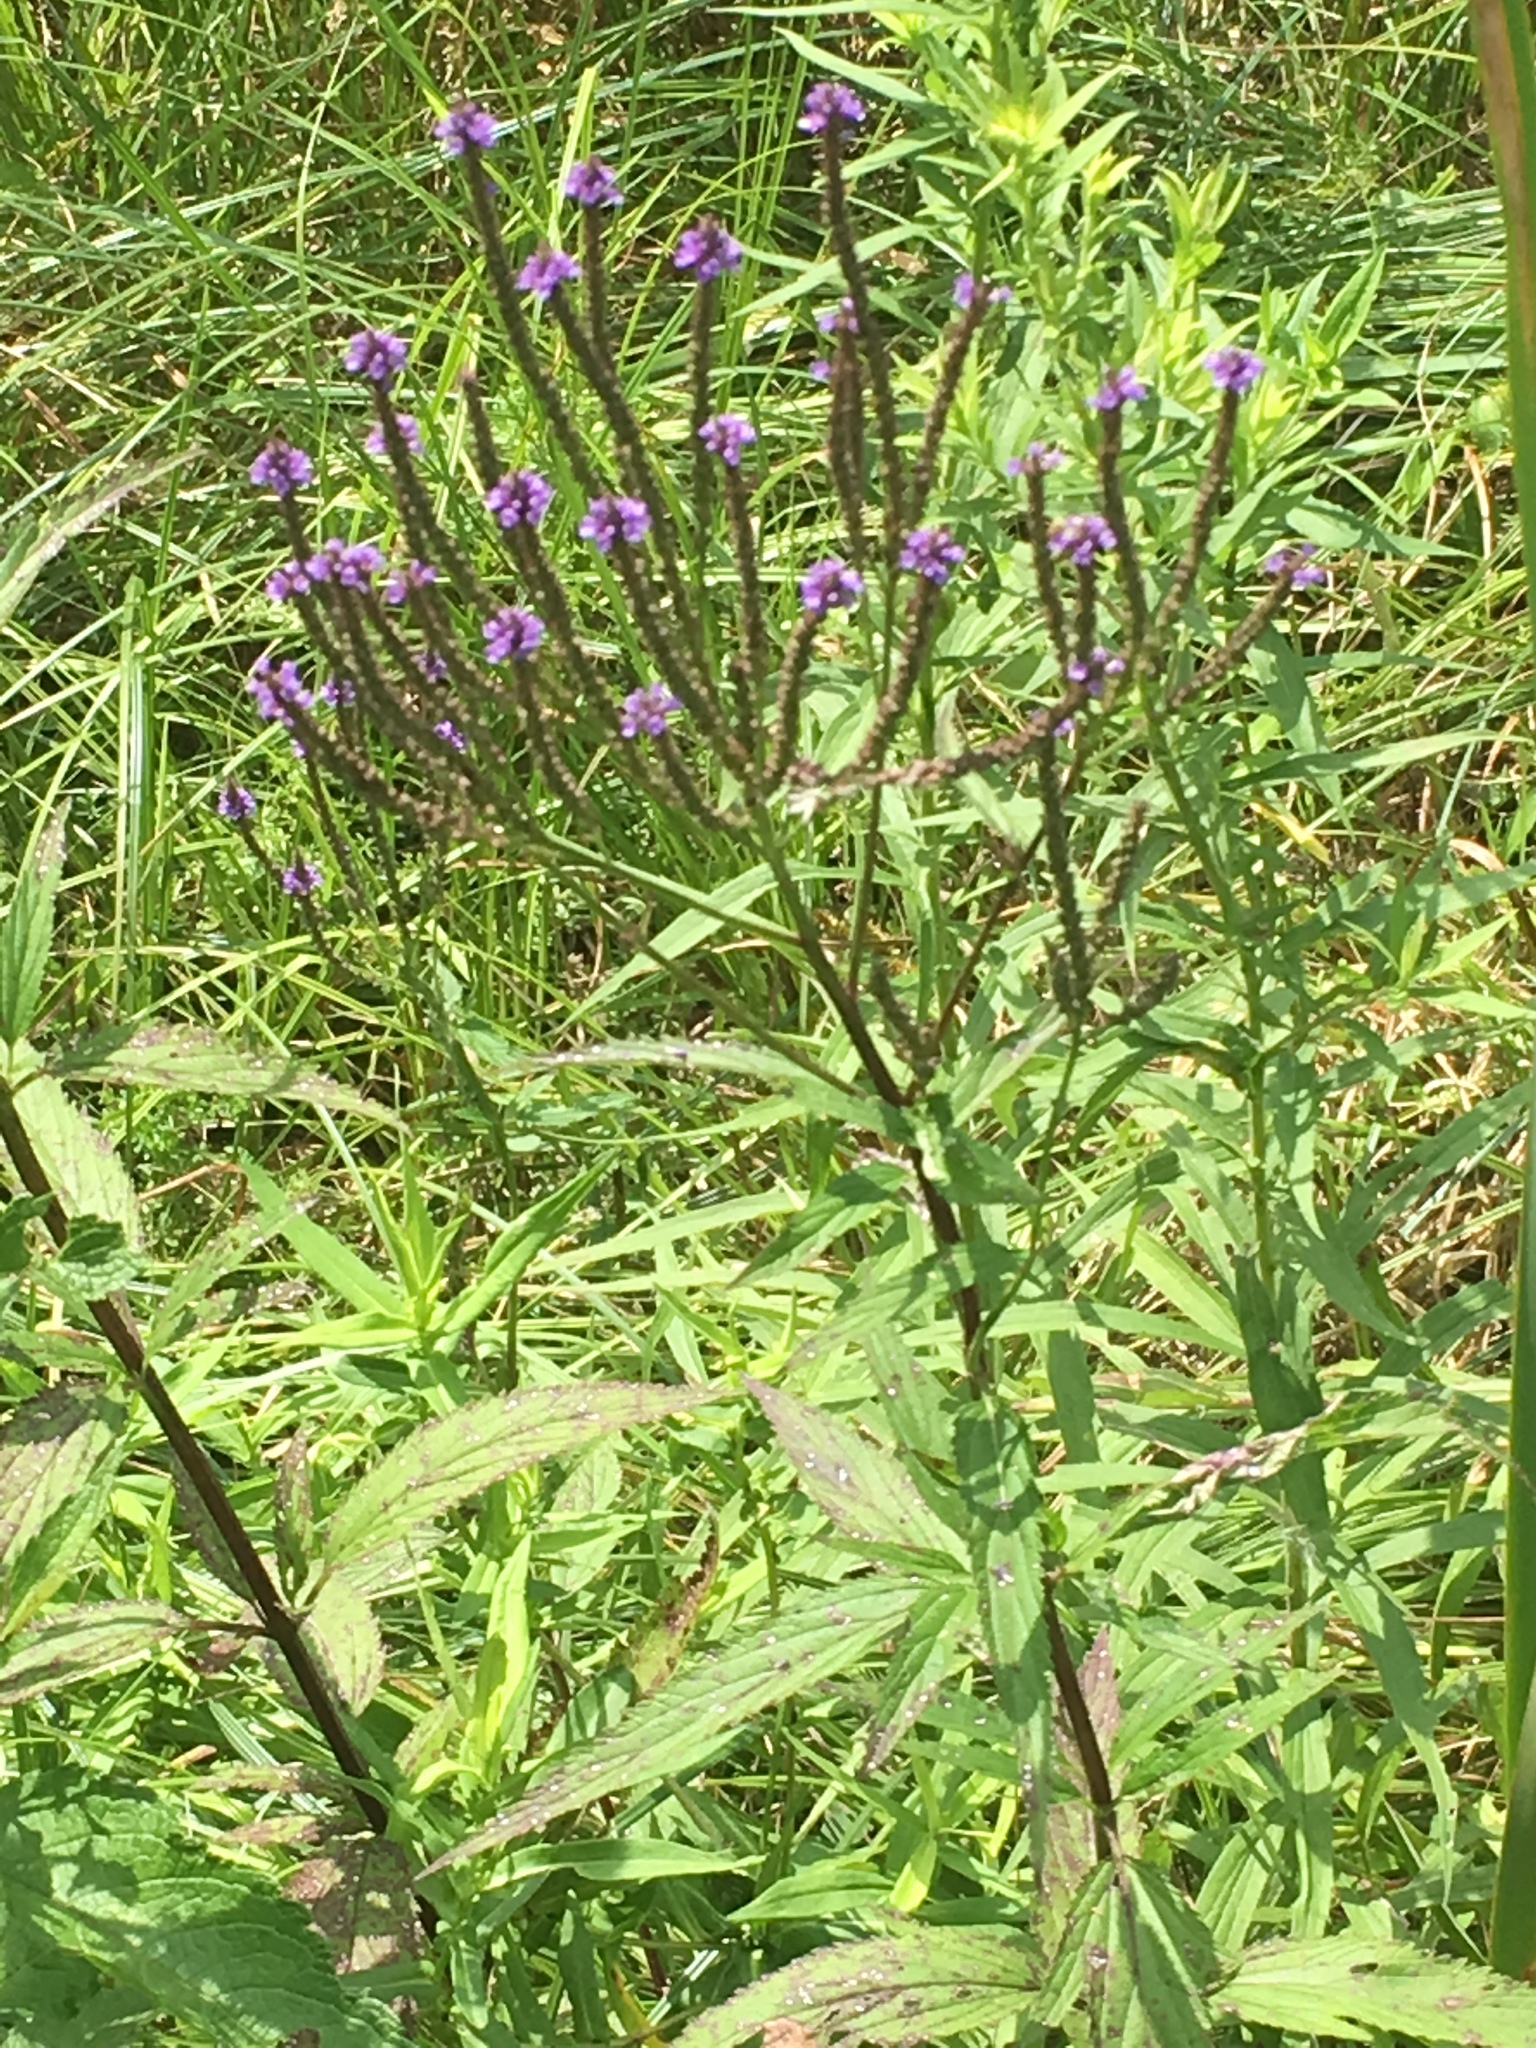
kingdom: Plantae
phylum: Tracheophyta
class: Magnoliopsida
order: Lamiales
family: Verbenaceae
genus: Verbena
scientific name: Verbena hastata
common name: American blue vervain
